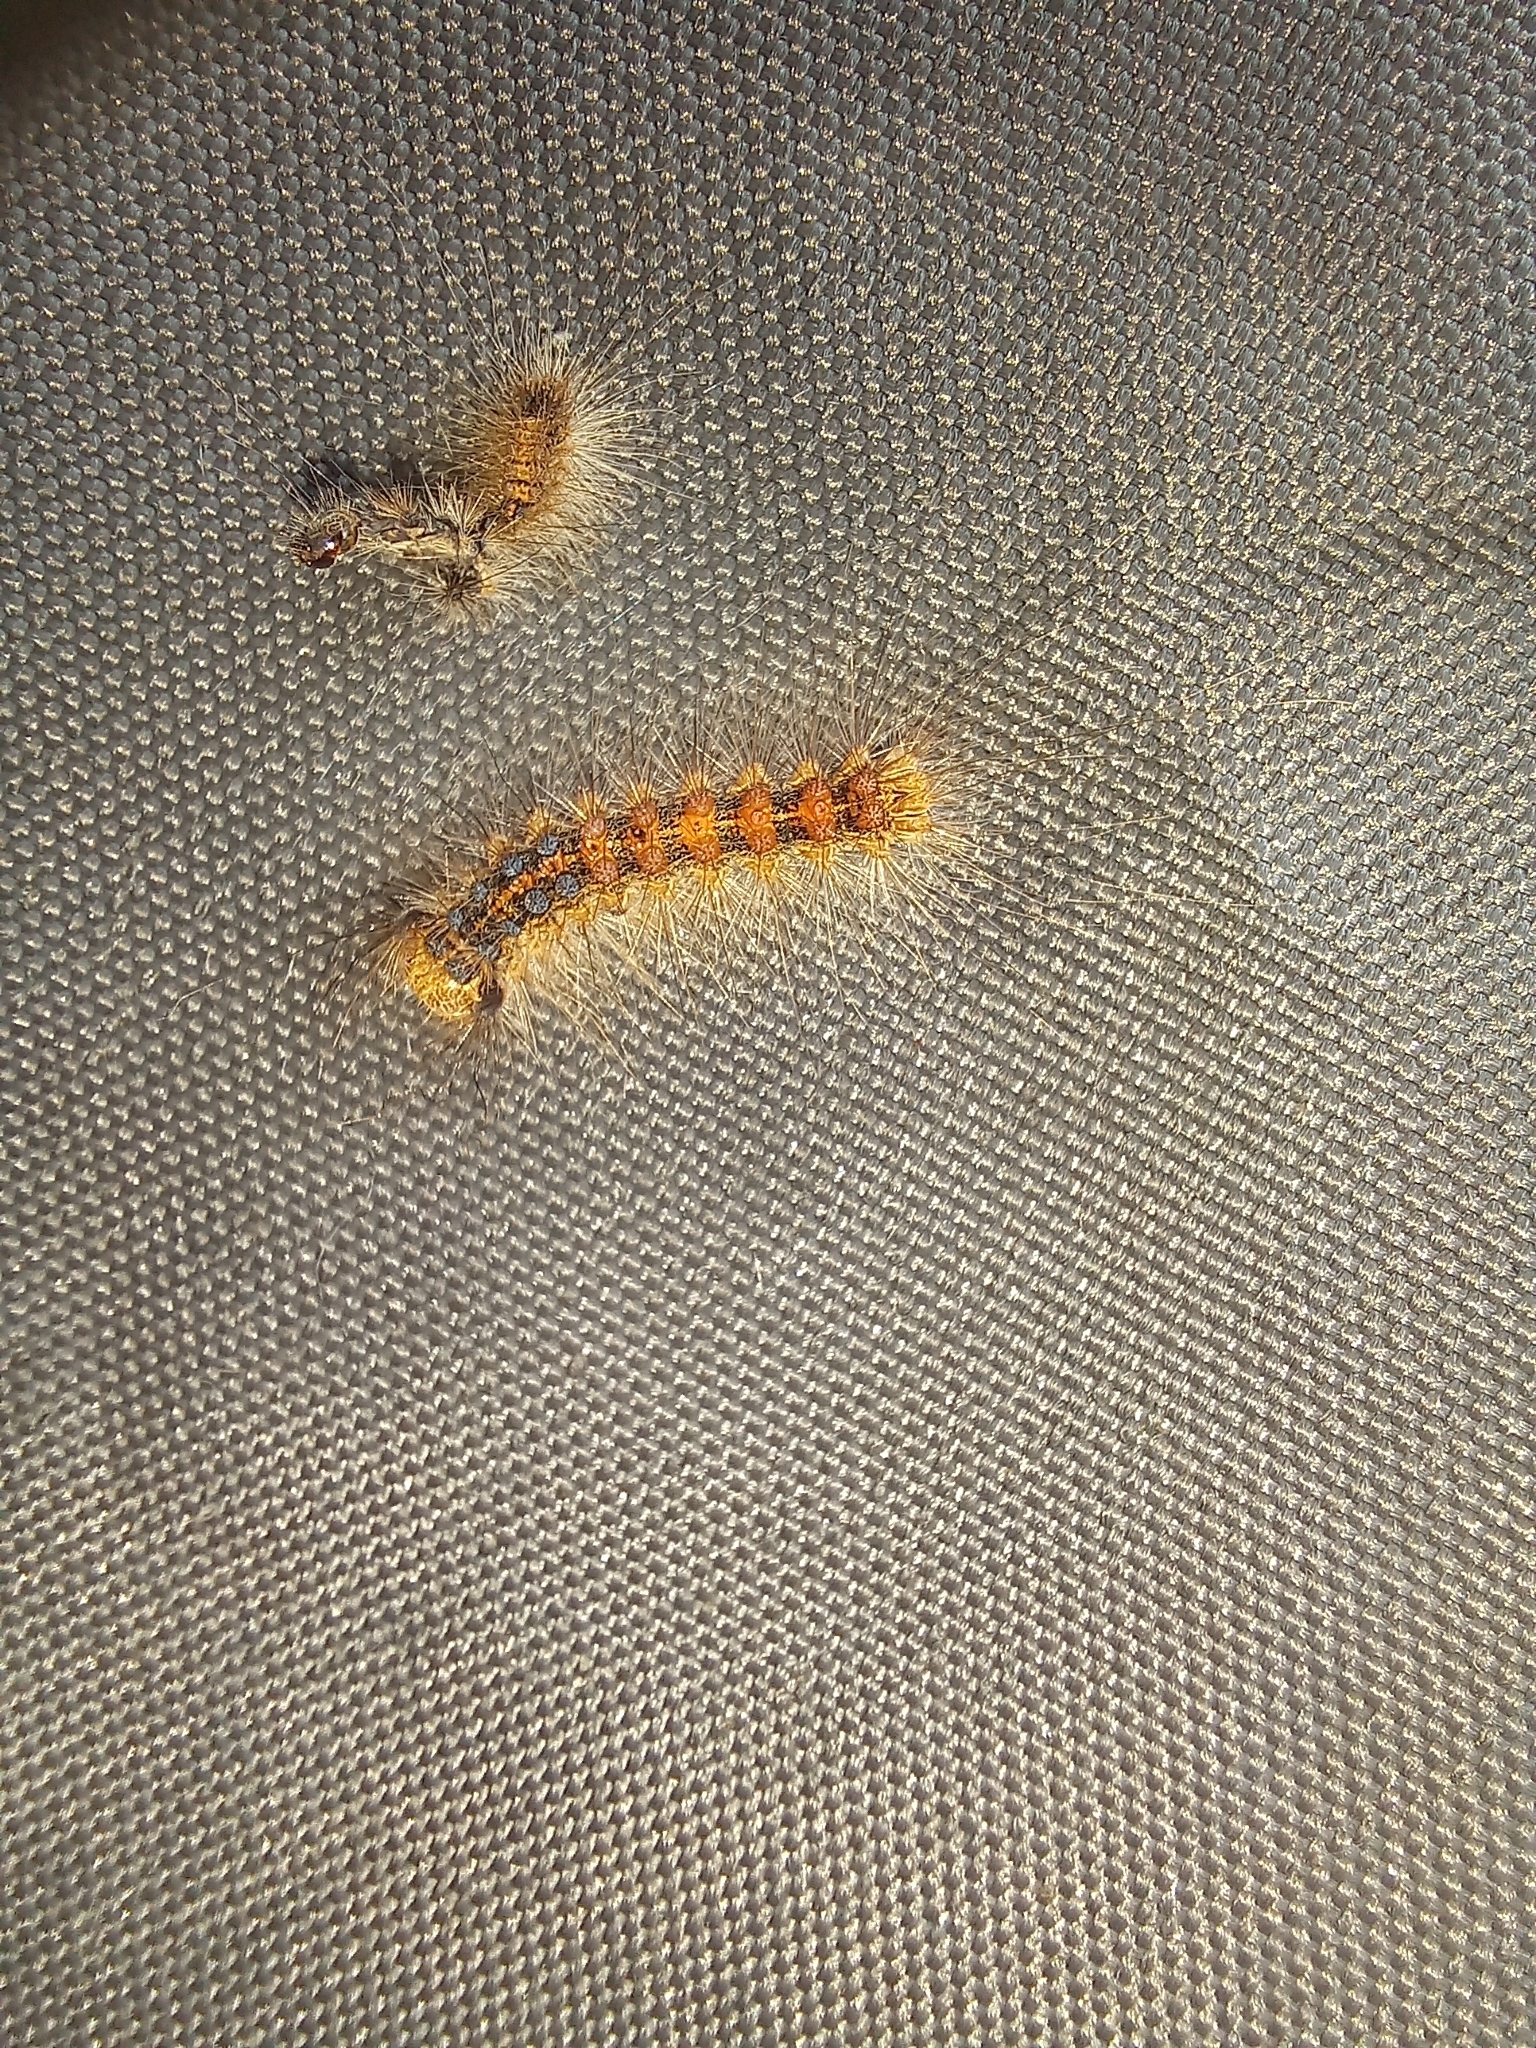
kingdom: Animalia
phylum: Arthropoda
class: Insecta
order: Lepidoptera
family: Erebidae
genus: Lymantria
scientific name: Lymantria dispar
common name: Gypsy moth
